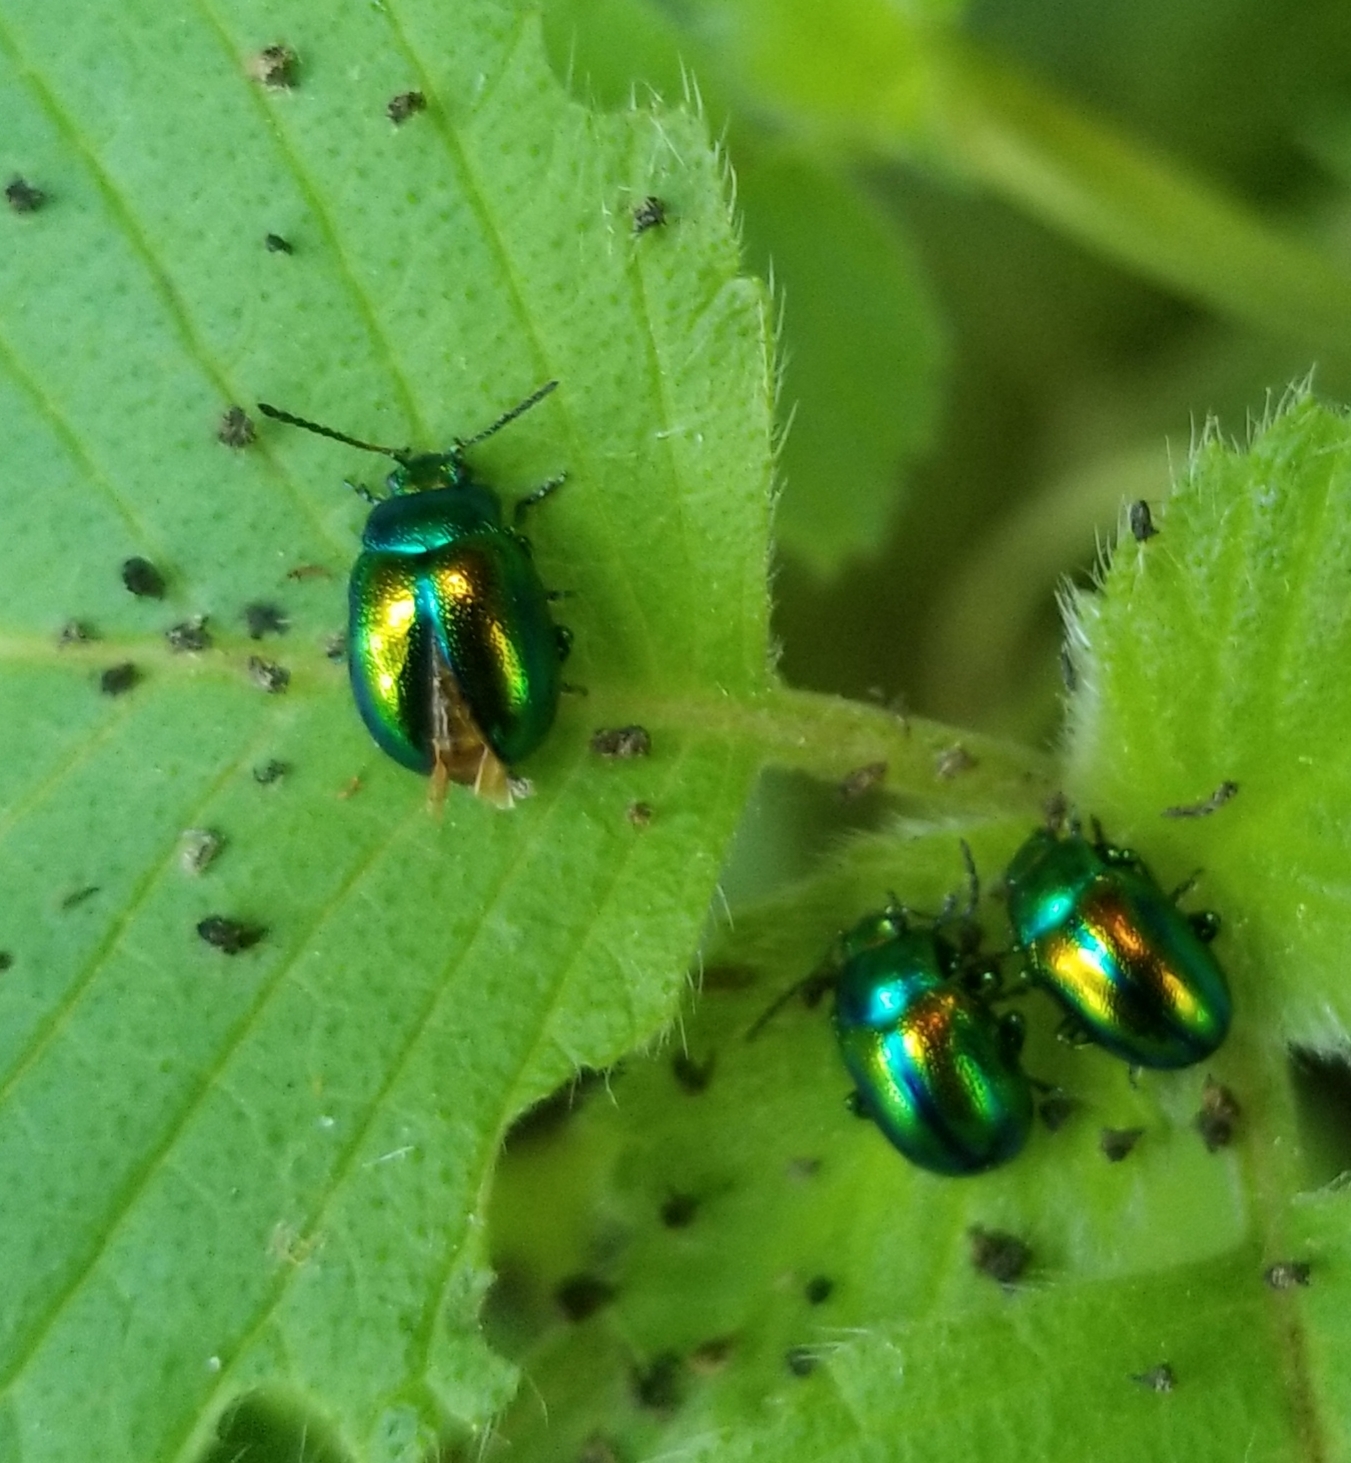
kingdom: Animalia
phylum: Arthropoda
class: Insecta
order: Coleoptera
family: Chrysomelidae
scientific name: Chrysomelidae
